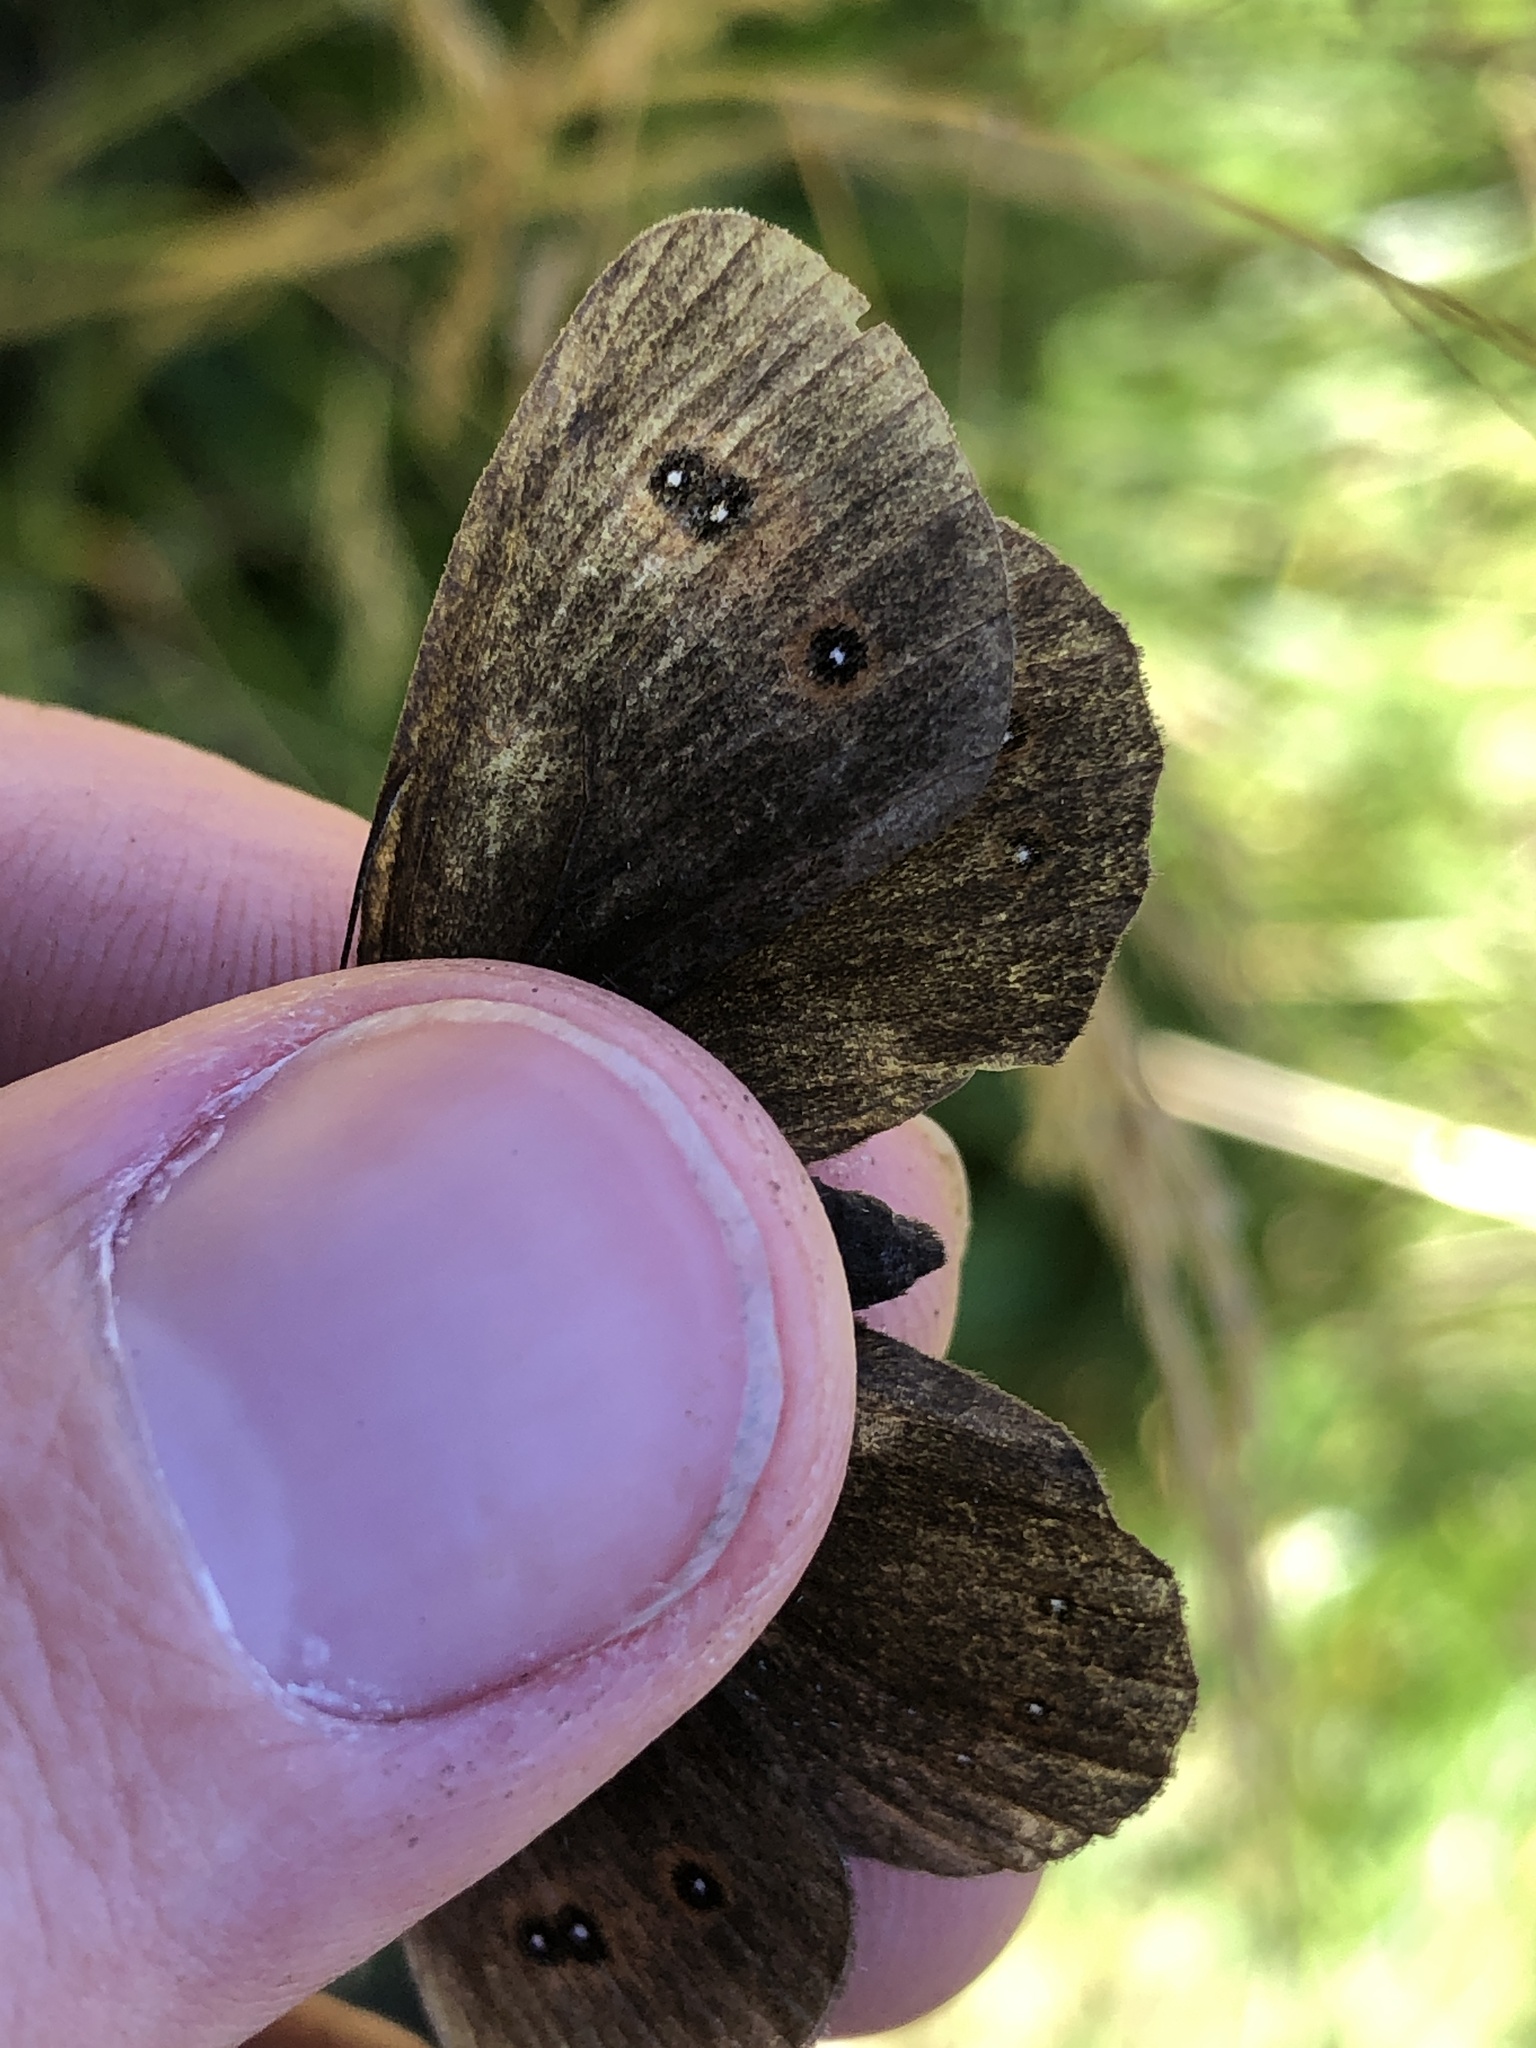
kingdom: Animalia
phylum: Arthropoda
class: Insecta
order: Lepidoptera
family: Nymphalidae
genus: Erebia
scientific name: Erebia aethiops
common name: Scotch argus
